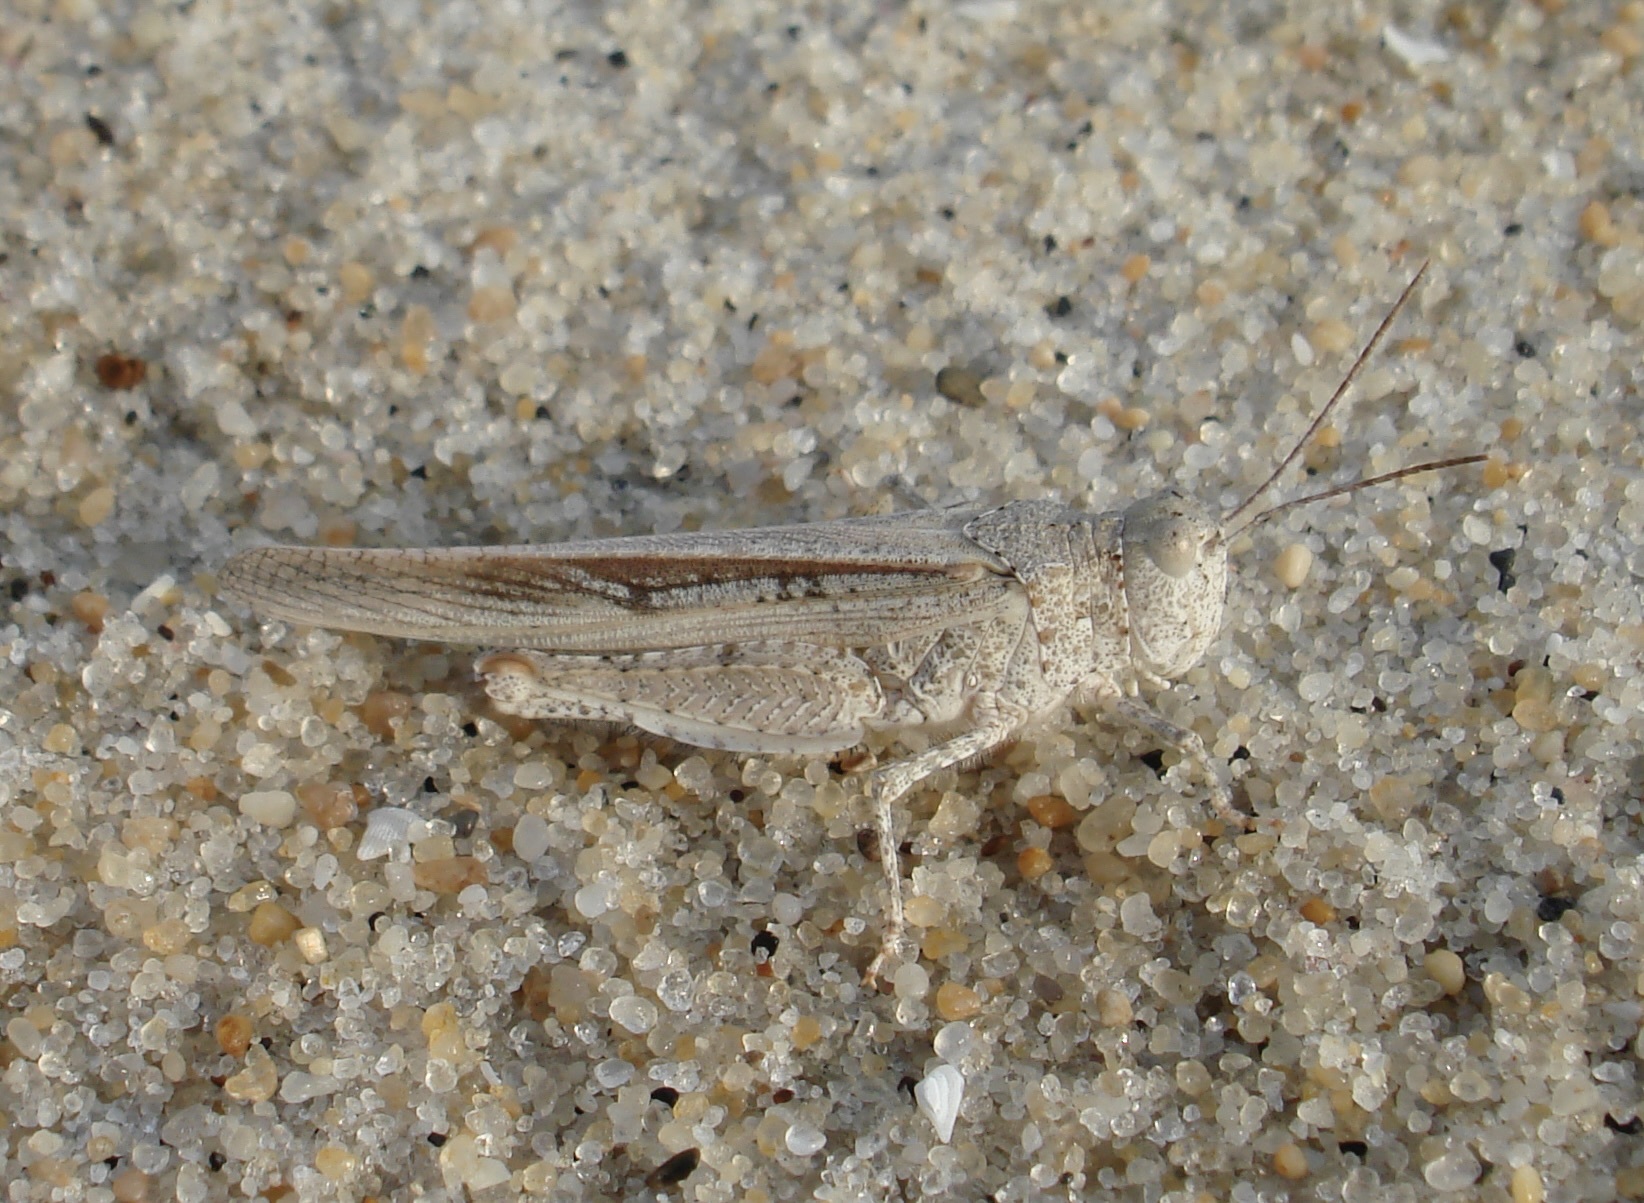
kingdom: Animalia
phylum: Arthropoda
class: Insecta
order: Orthoptera
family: Acrididae
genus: Trimerotropis
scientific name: Trimerotropis maritima
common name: Seaside locust
